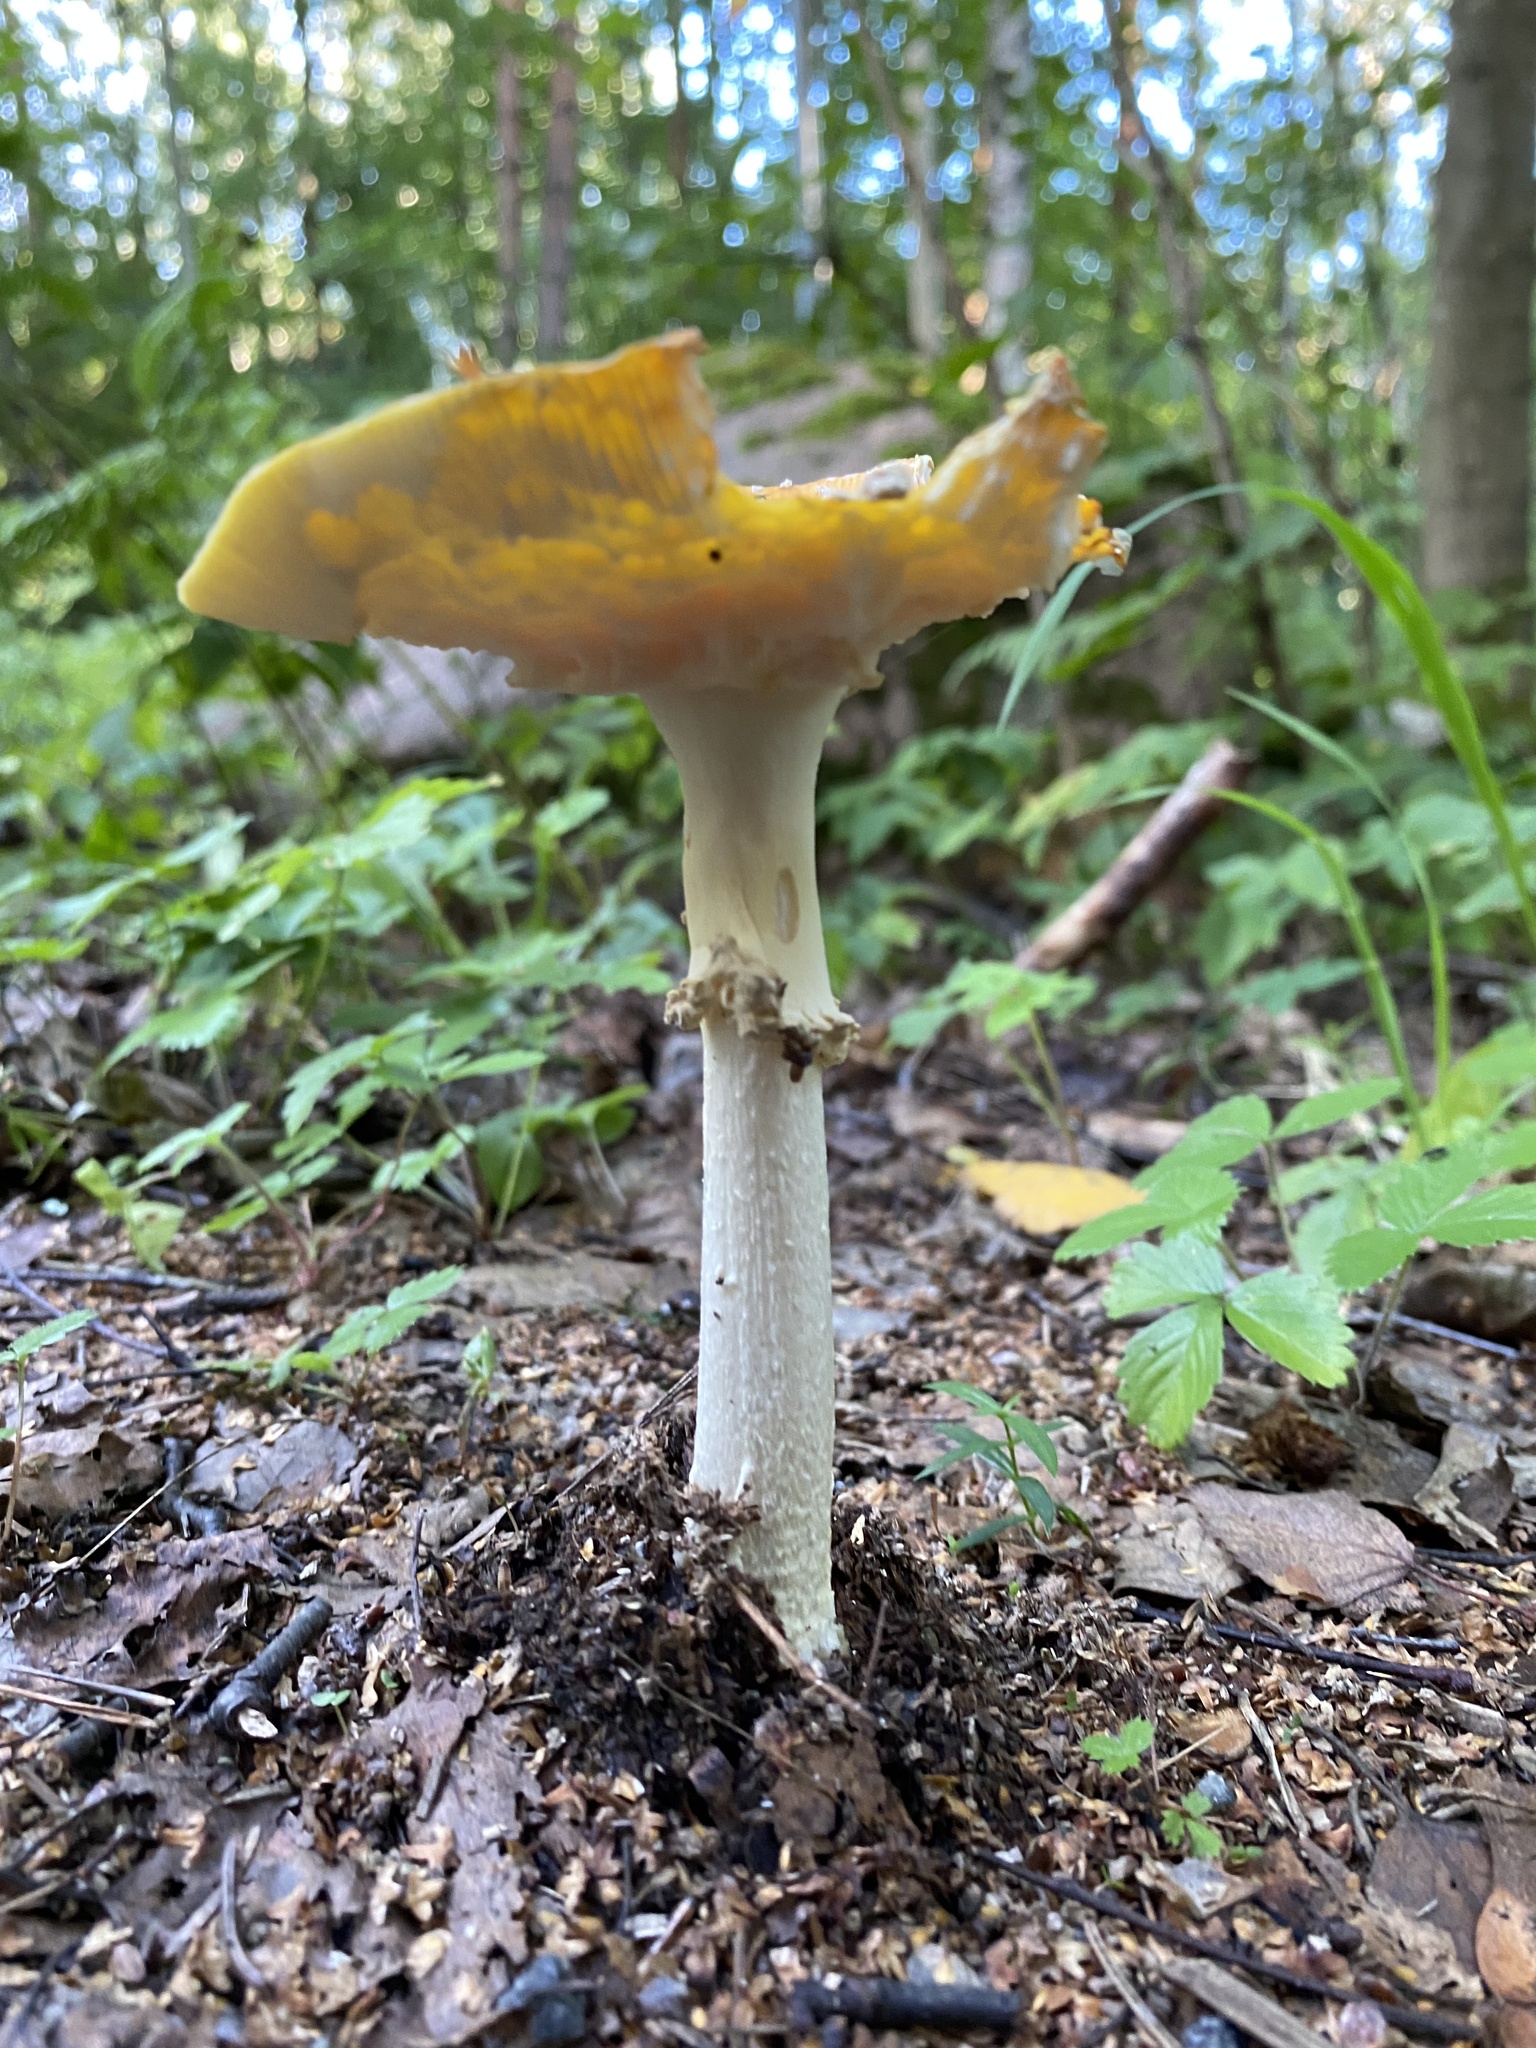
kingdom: Fungi
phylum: Basidiomycota
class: Agaricomycetes
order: Agaricales
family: Amanitaceae
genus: Amanita
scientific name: Amanita muscaria
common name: Fly agaric
